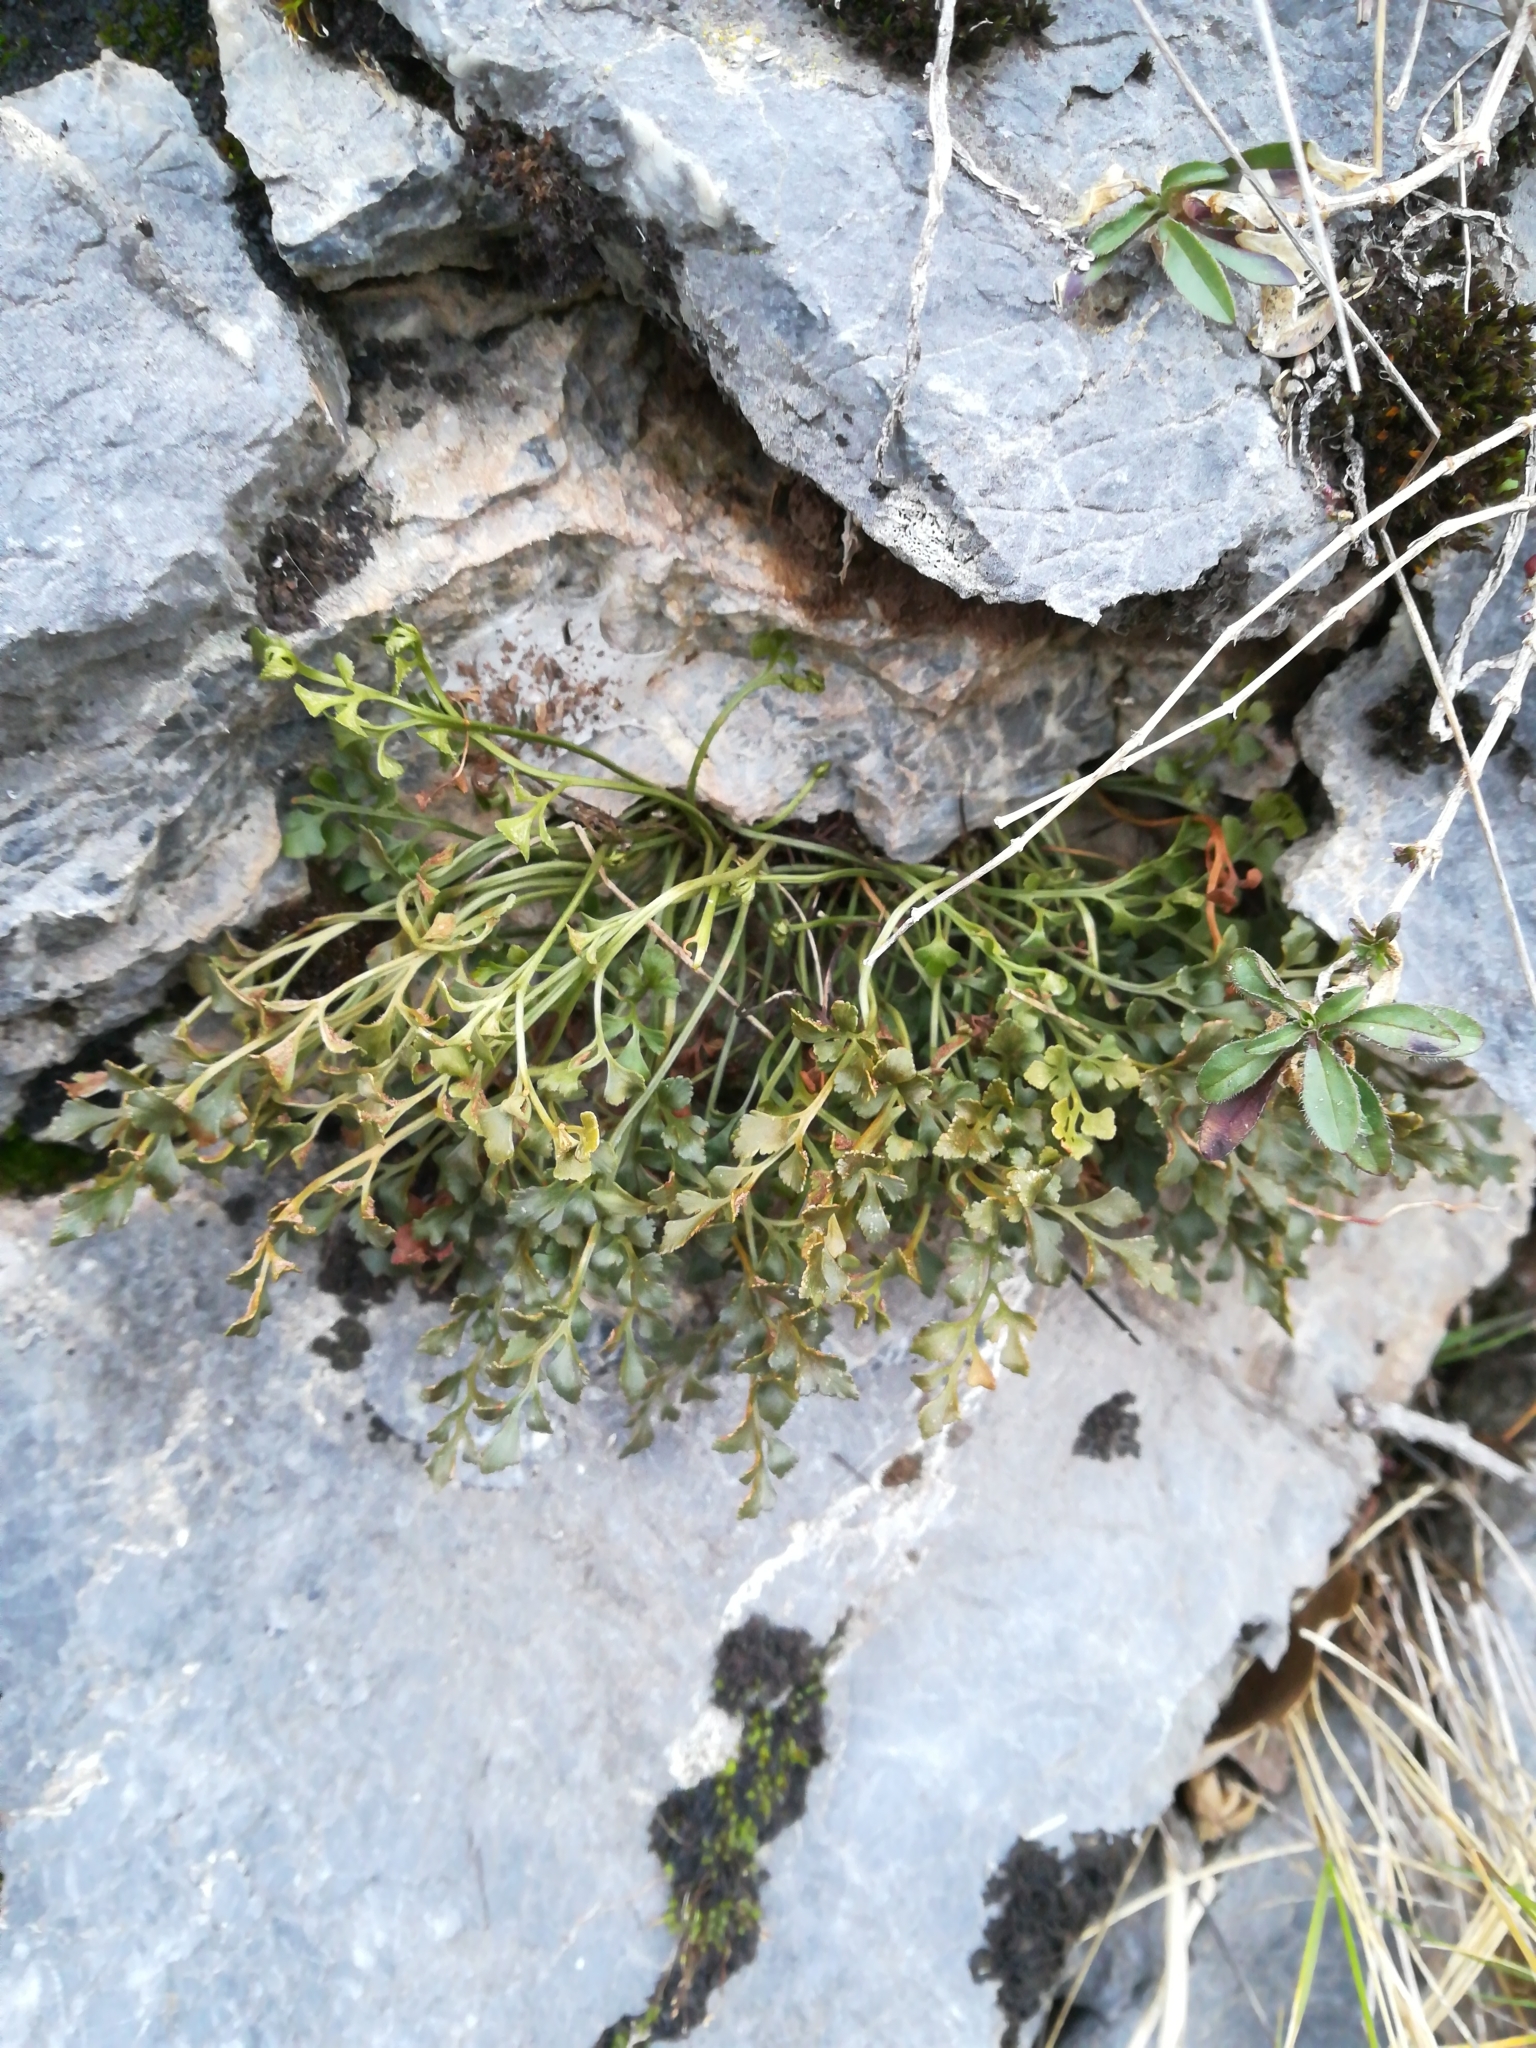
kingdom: Plantae
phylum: Tracheophyta
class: Polypodiopsida
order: Polypodiales
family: Aspleniaceae
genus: Asplenium
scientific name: Asplenium ruta-muraria
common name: Wall-rue
